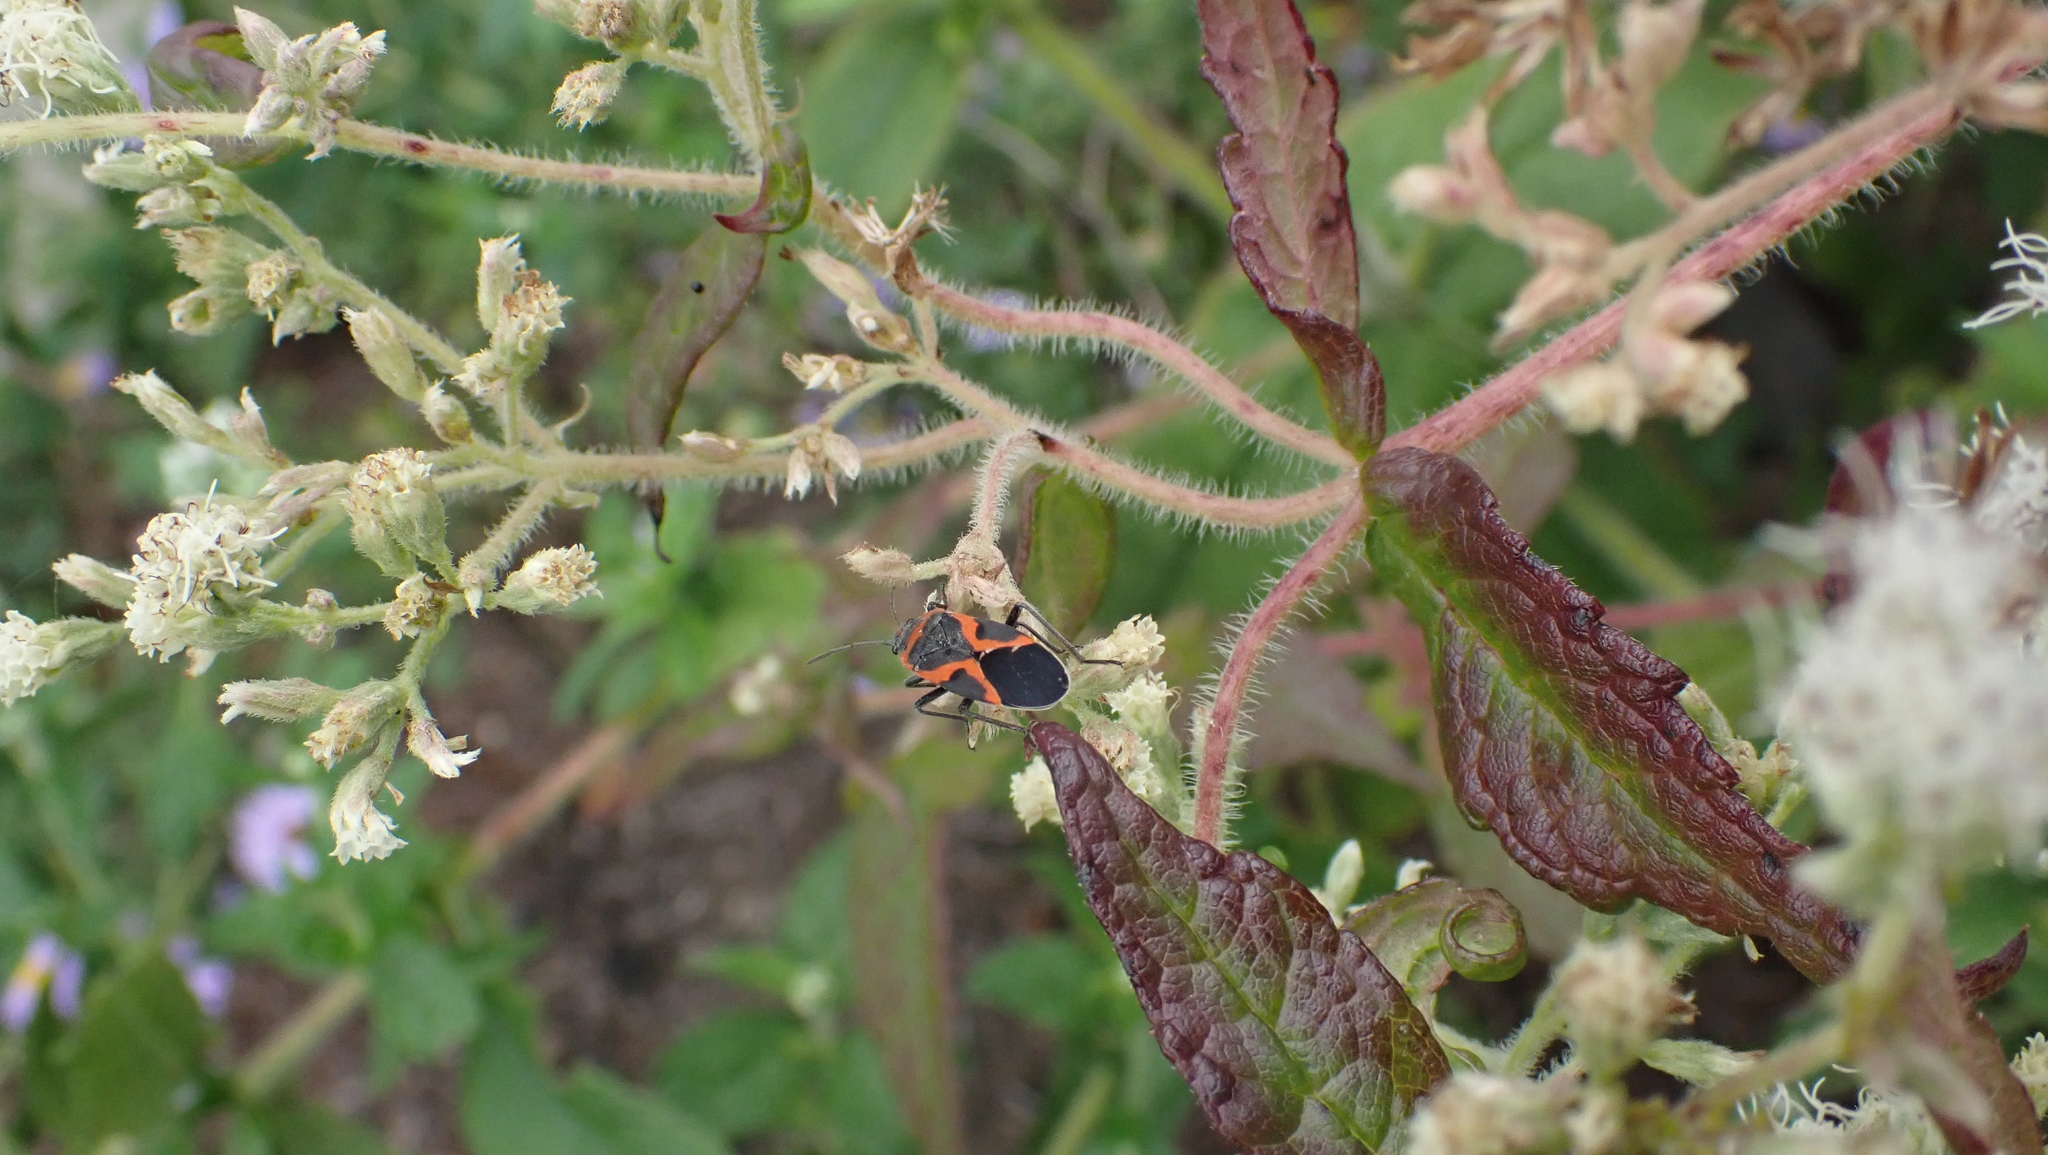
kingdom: Animalia
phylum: Arthropoda
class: Insecta
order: Hemiptera
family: Lygaeidae
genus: Lygaeus
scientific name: Lygaeus kalmii
